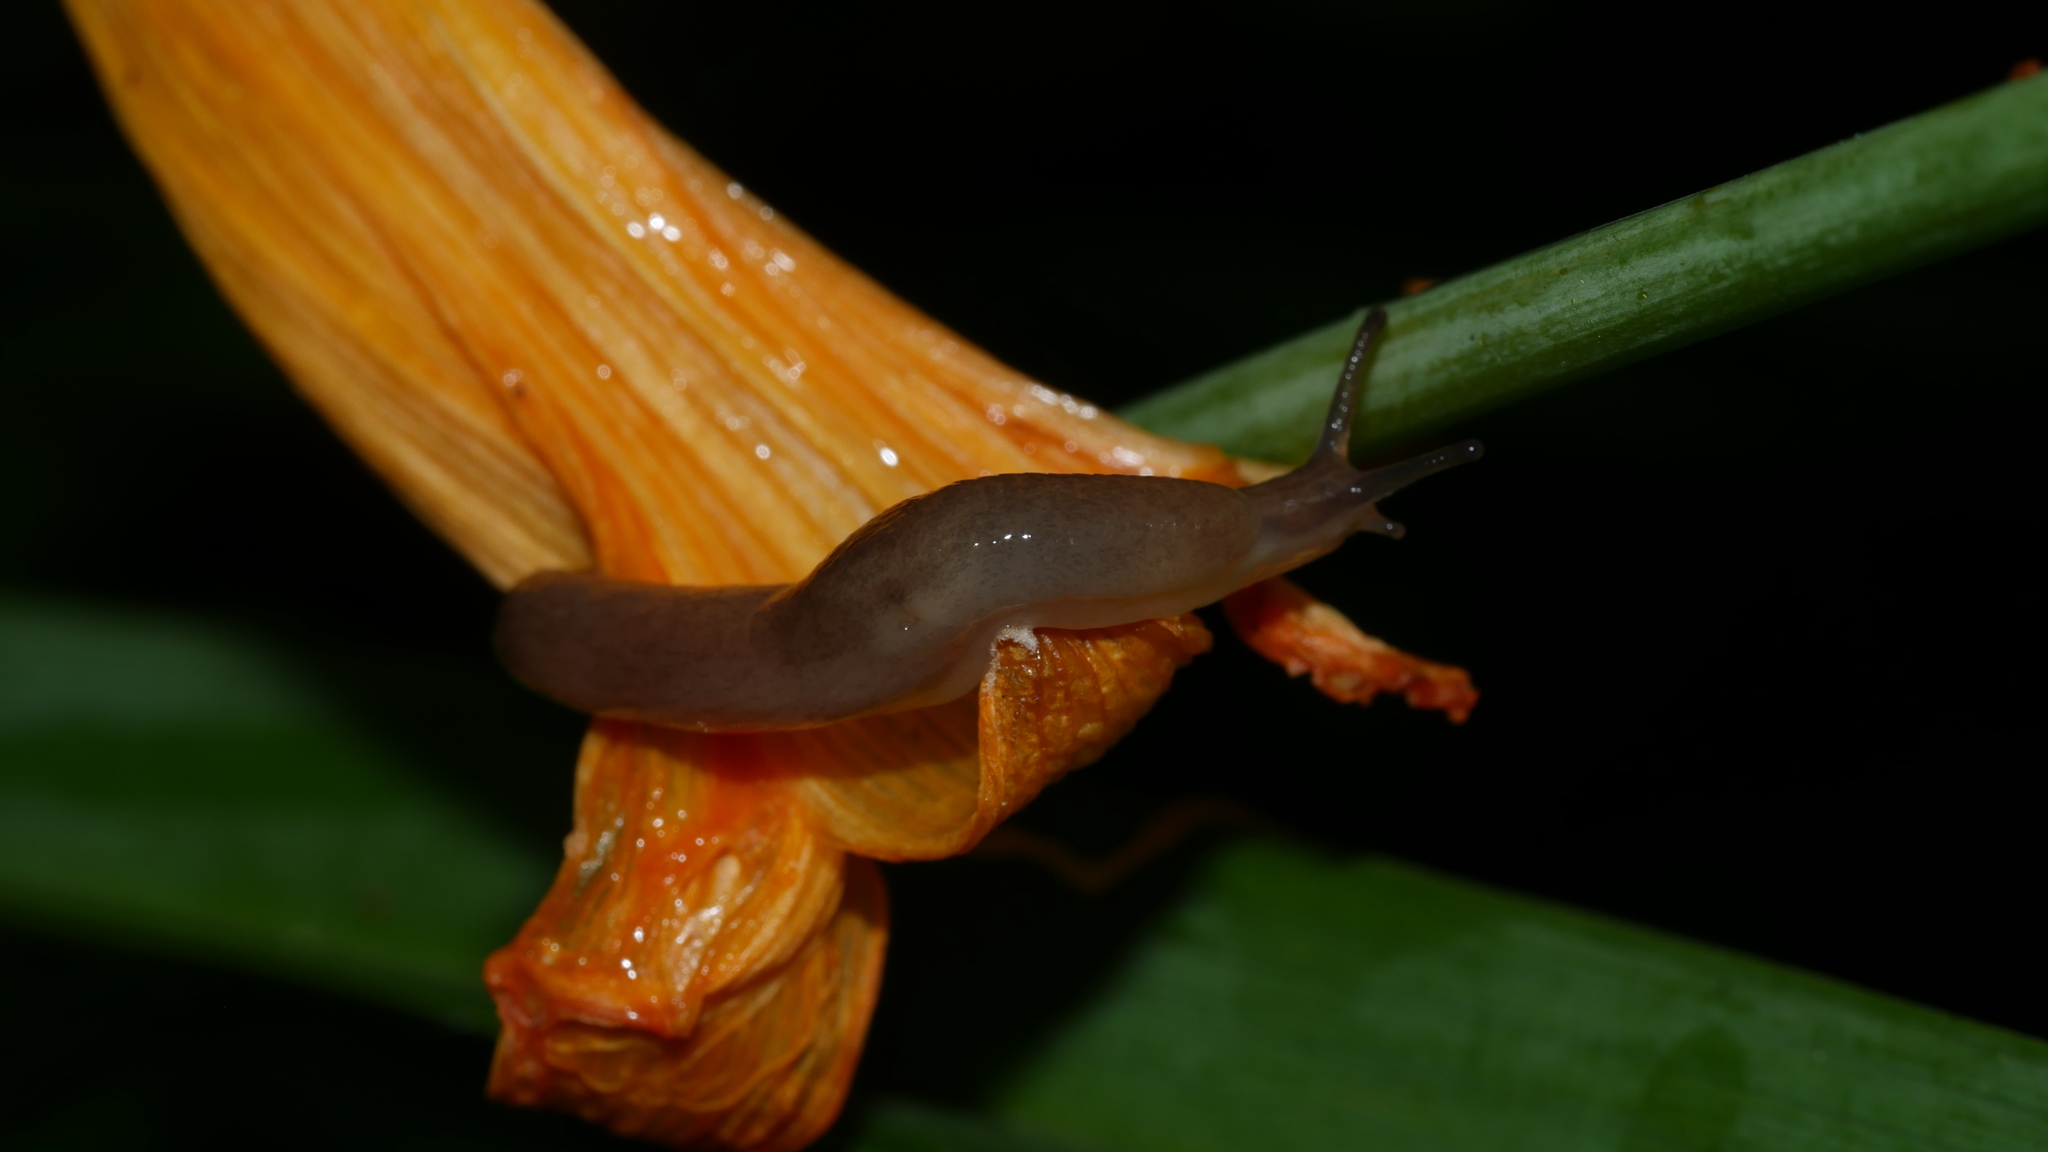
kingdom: Animalia
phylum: Mollusca
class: Gastropoda
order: Stylommatophora
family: Agriolimacidae
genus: Deroceras
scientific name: Deroceras laeve
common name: Marsh slug
